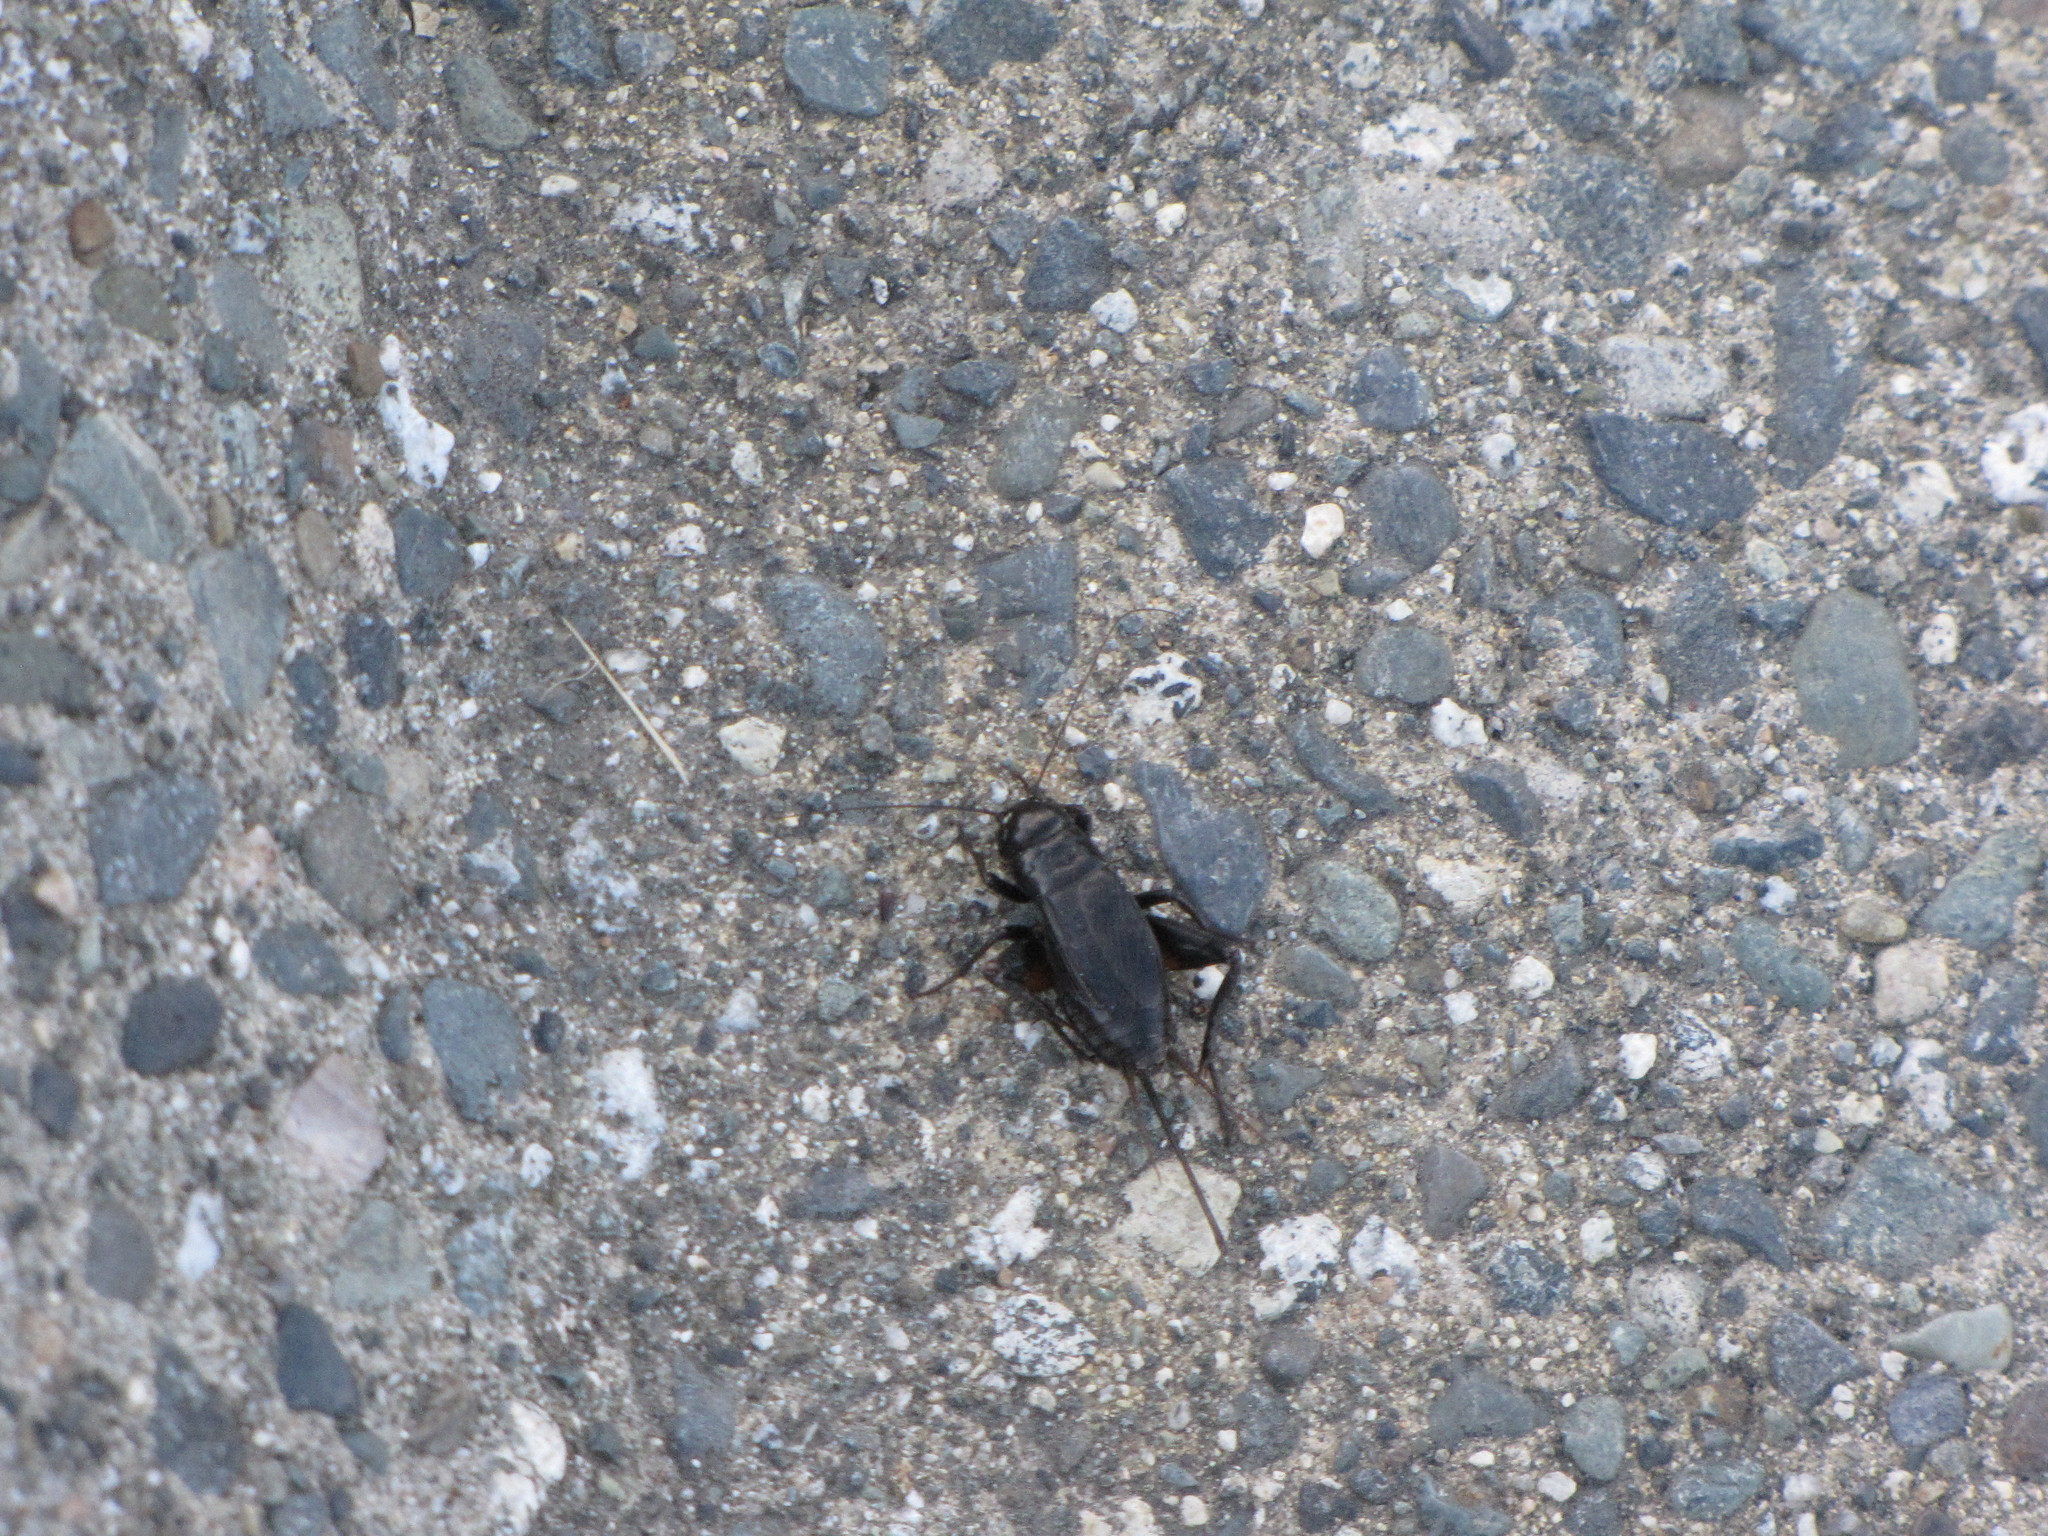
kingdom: Animalia
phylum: Arthropoda
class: Insecta
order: Orthoptera
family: Gryllidae
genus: Gryllus
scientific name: Gryllus pennsylvanicus
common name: Fall field cricket
